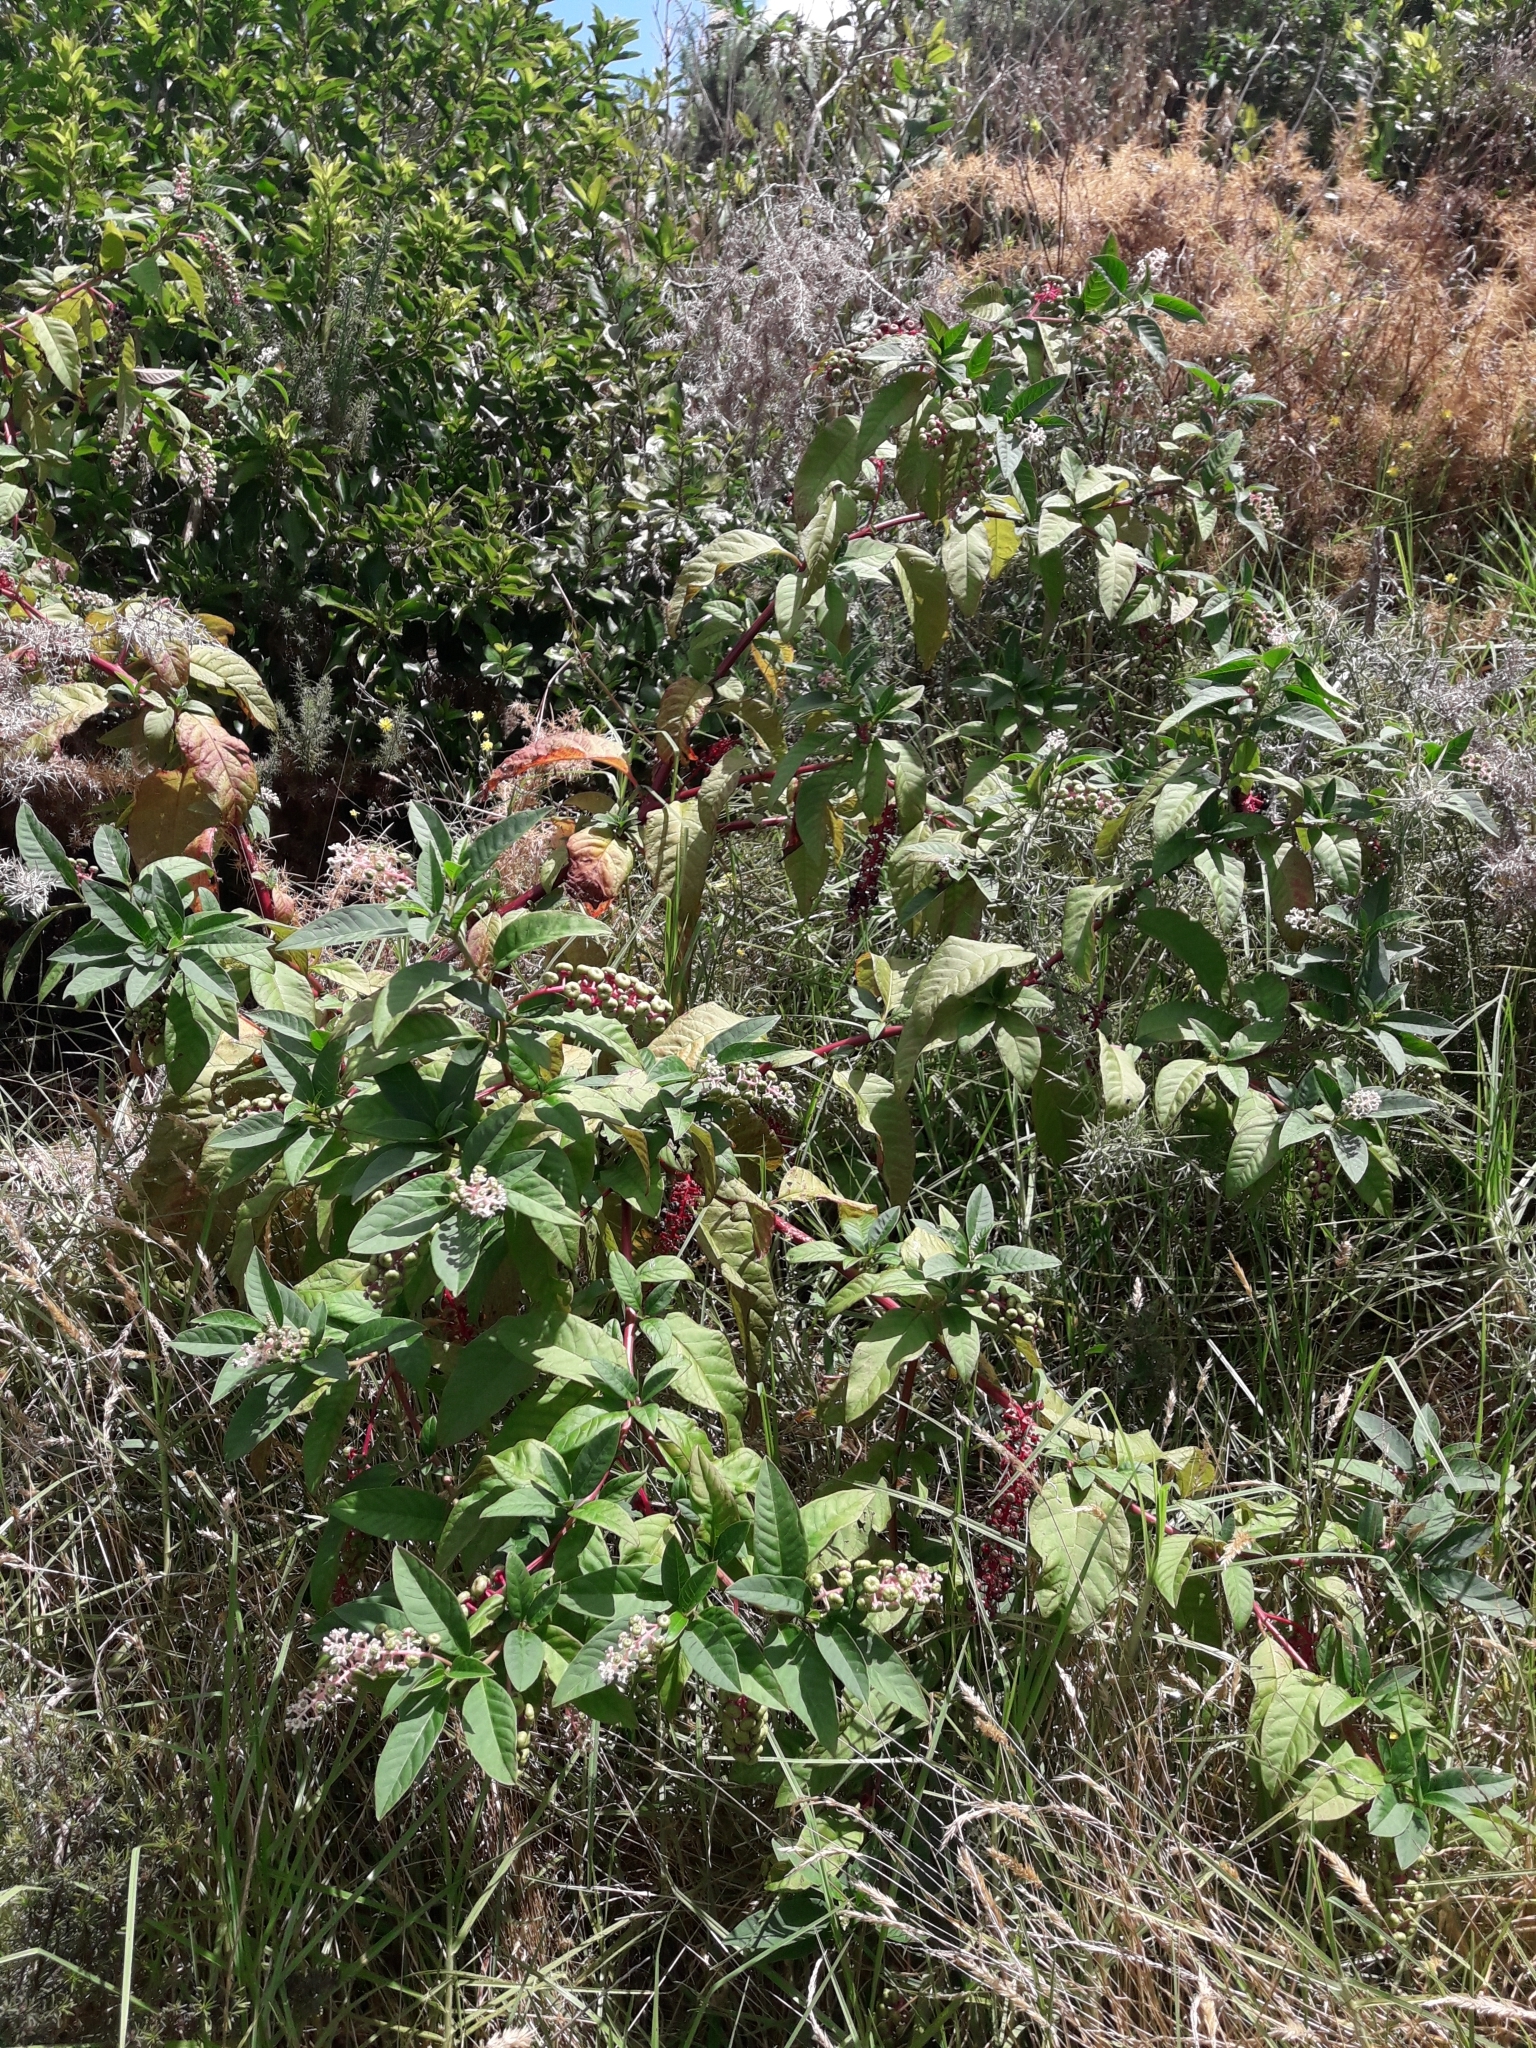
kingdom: Plantae
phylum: Tracheophyta
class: Magnoliopsida
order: Caryophyllales
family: Phytolaccaceae
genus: Phytolacca
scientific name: Phytolacca americana
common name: American pokeweed
